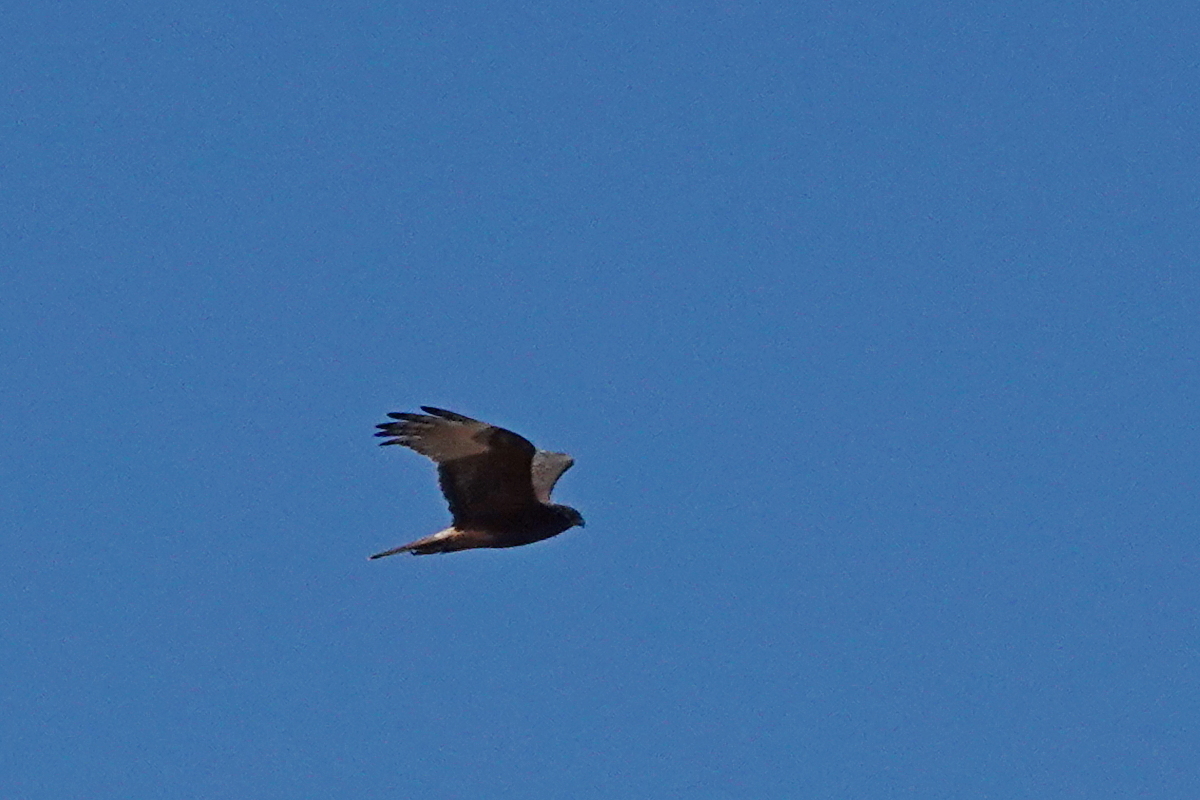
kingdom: Animalia
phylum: Chordata
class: Aves
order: Accipitriformes
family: Accipitridae
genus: Circus
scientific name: Circus approximans
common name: Swamp harrier
